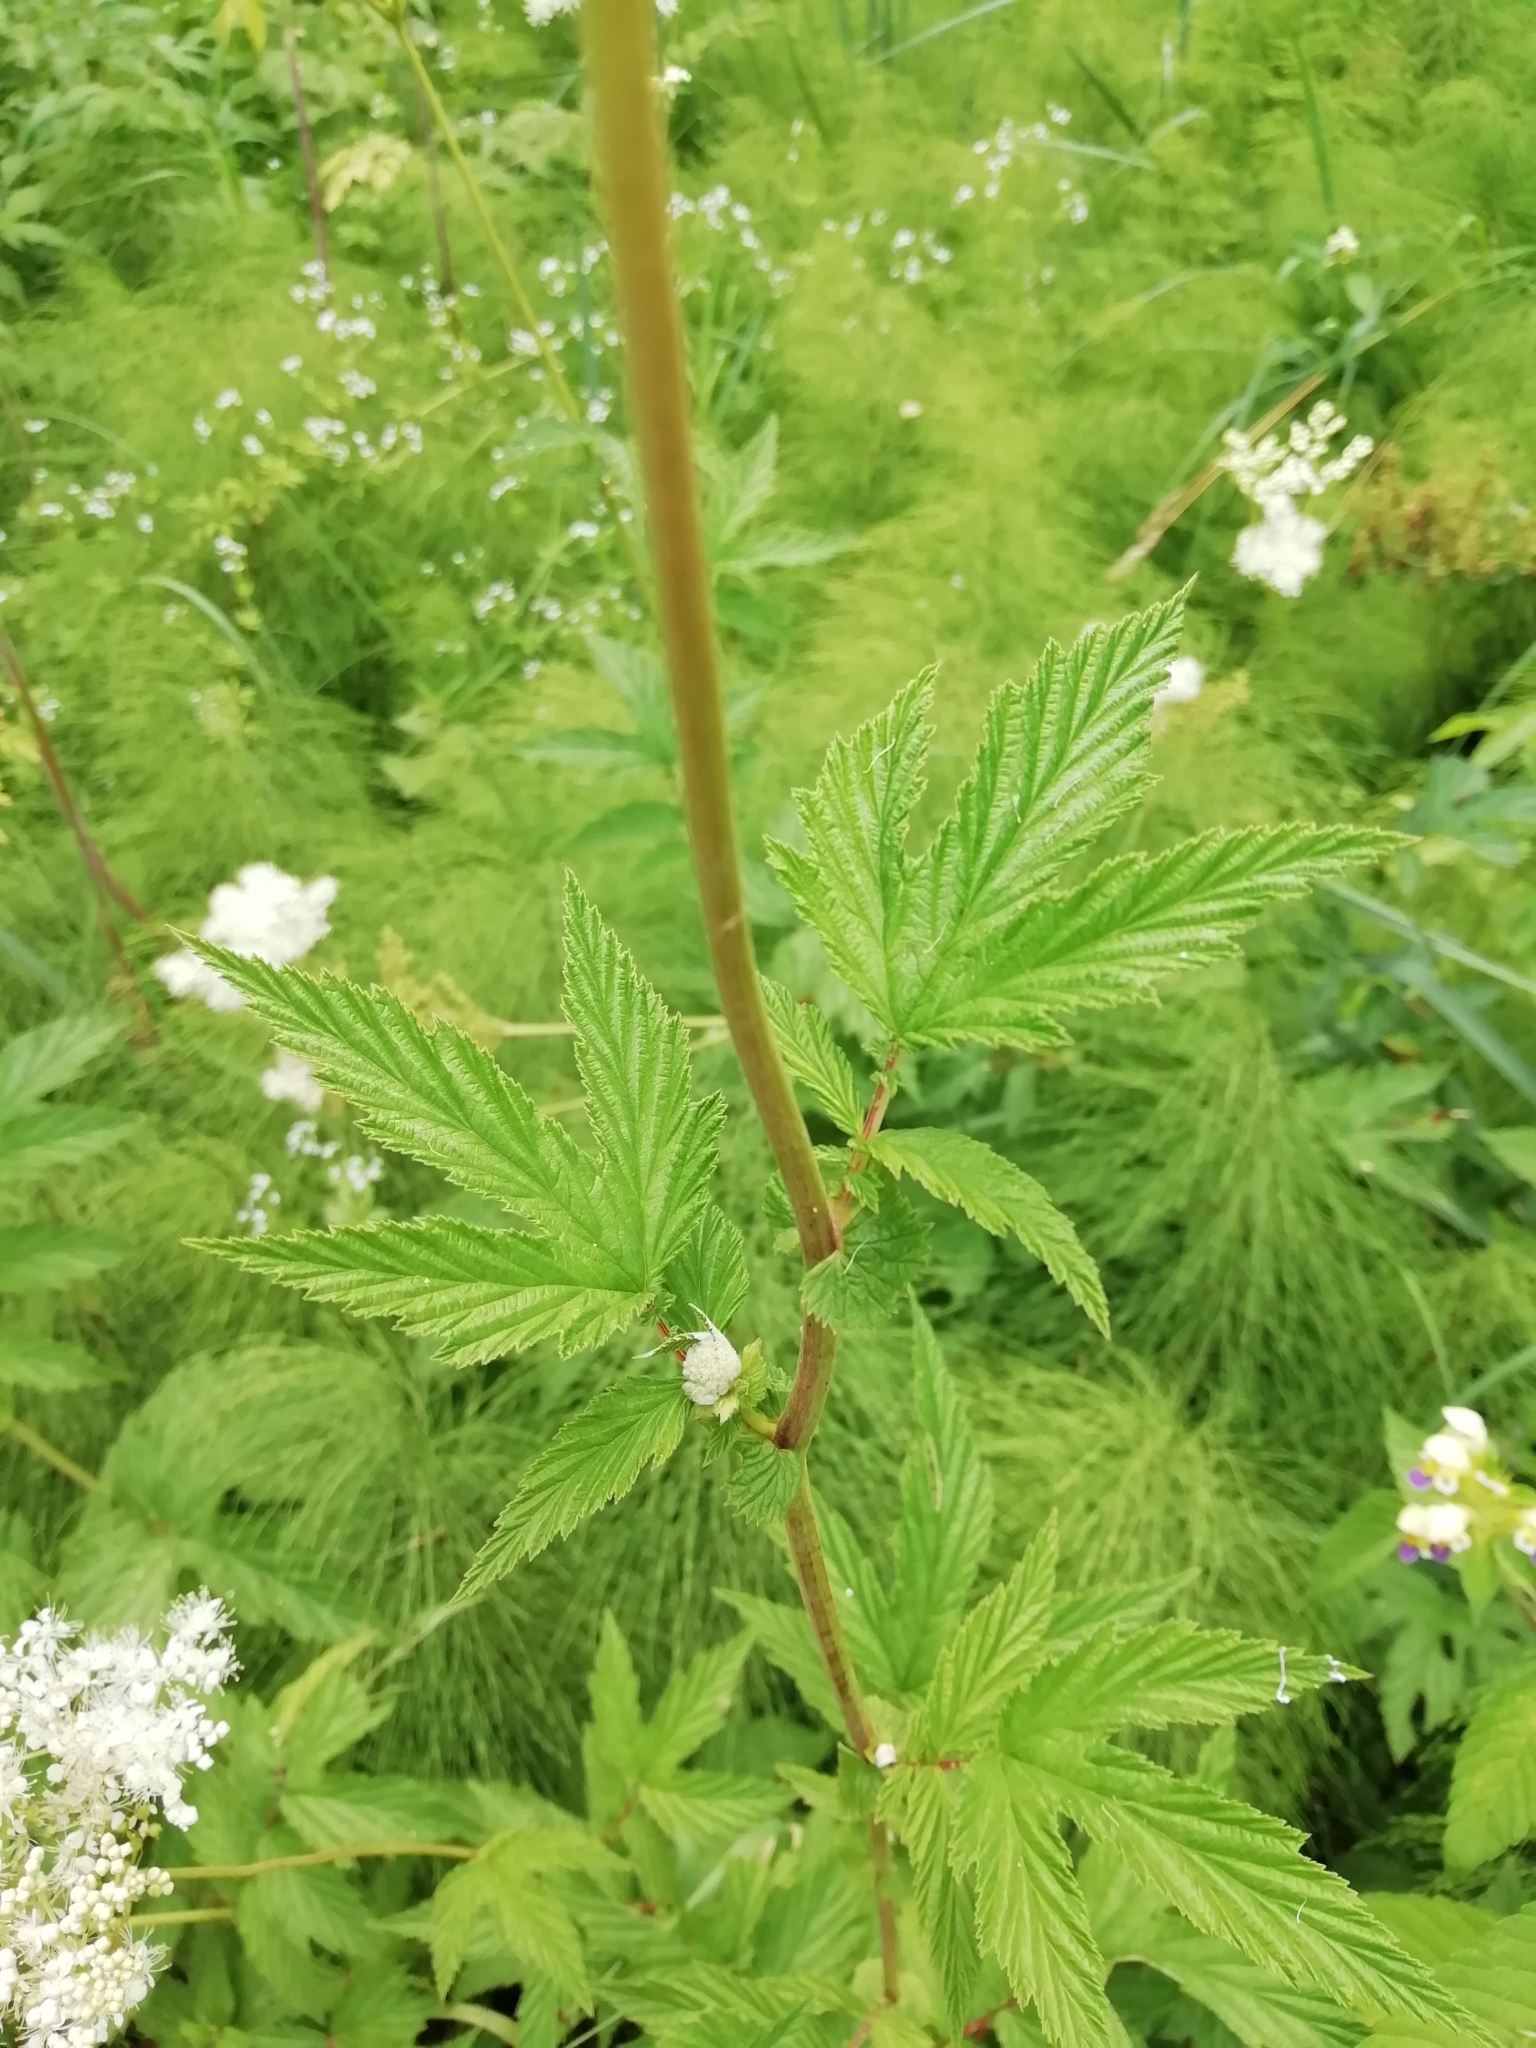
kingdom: Plantae
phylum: Tracheophyta
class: Magnoliopsida
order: Rosales
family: Rosaceae
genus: Filipendula
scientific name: Filipendula ulmaria
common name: Meadowsweet
